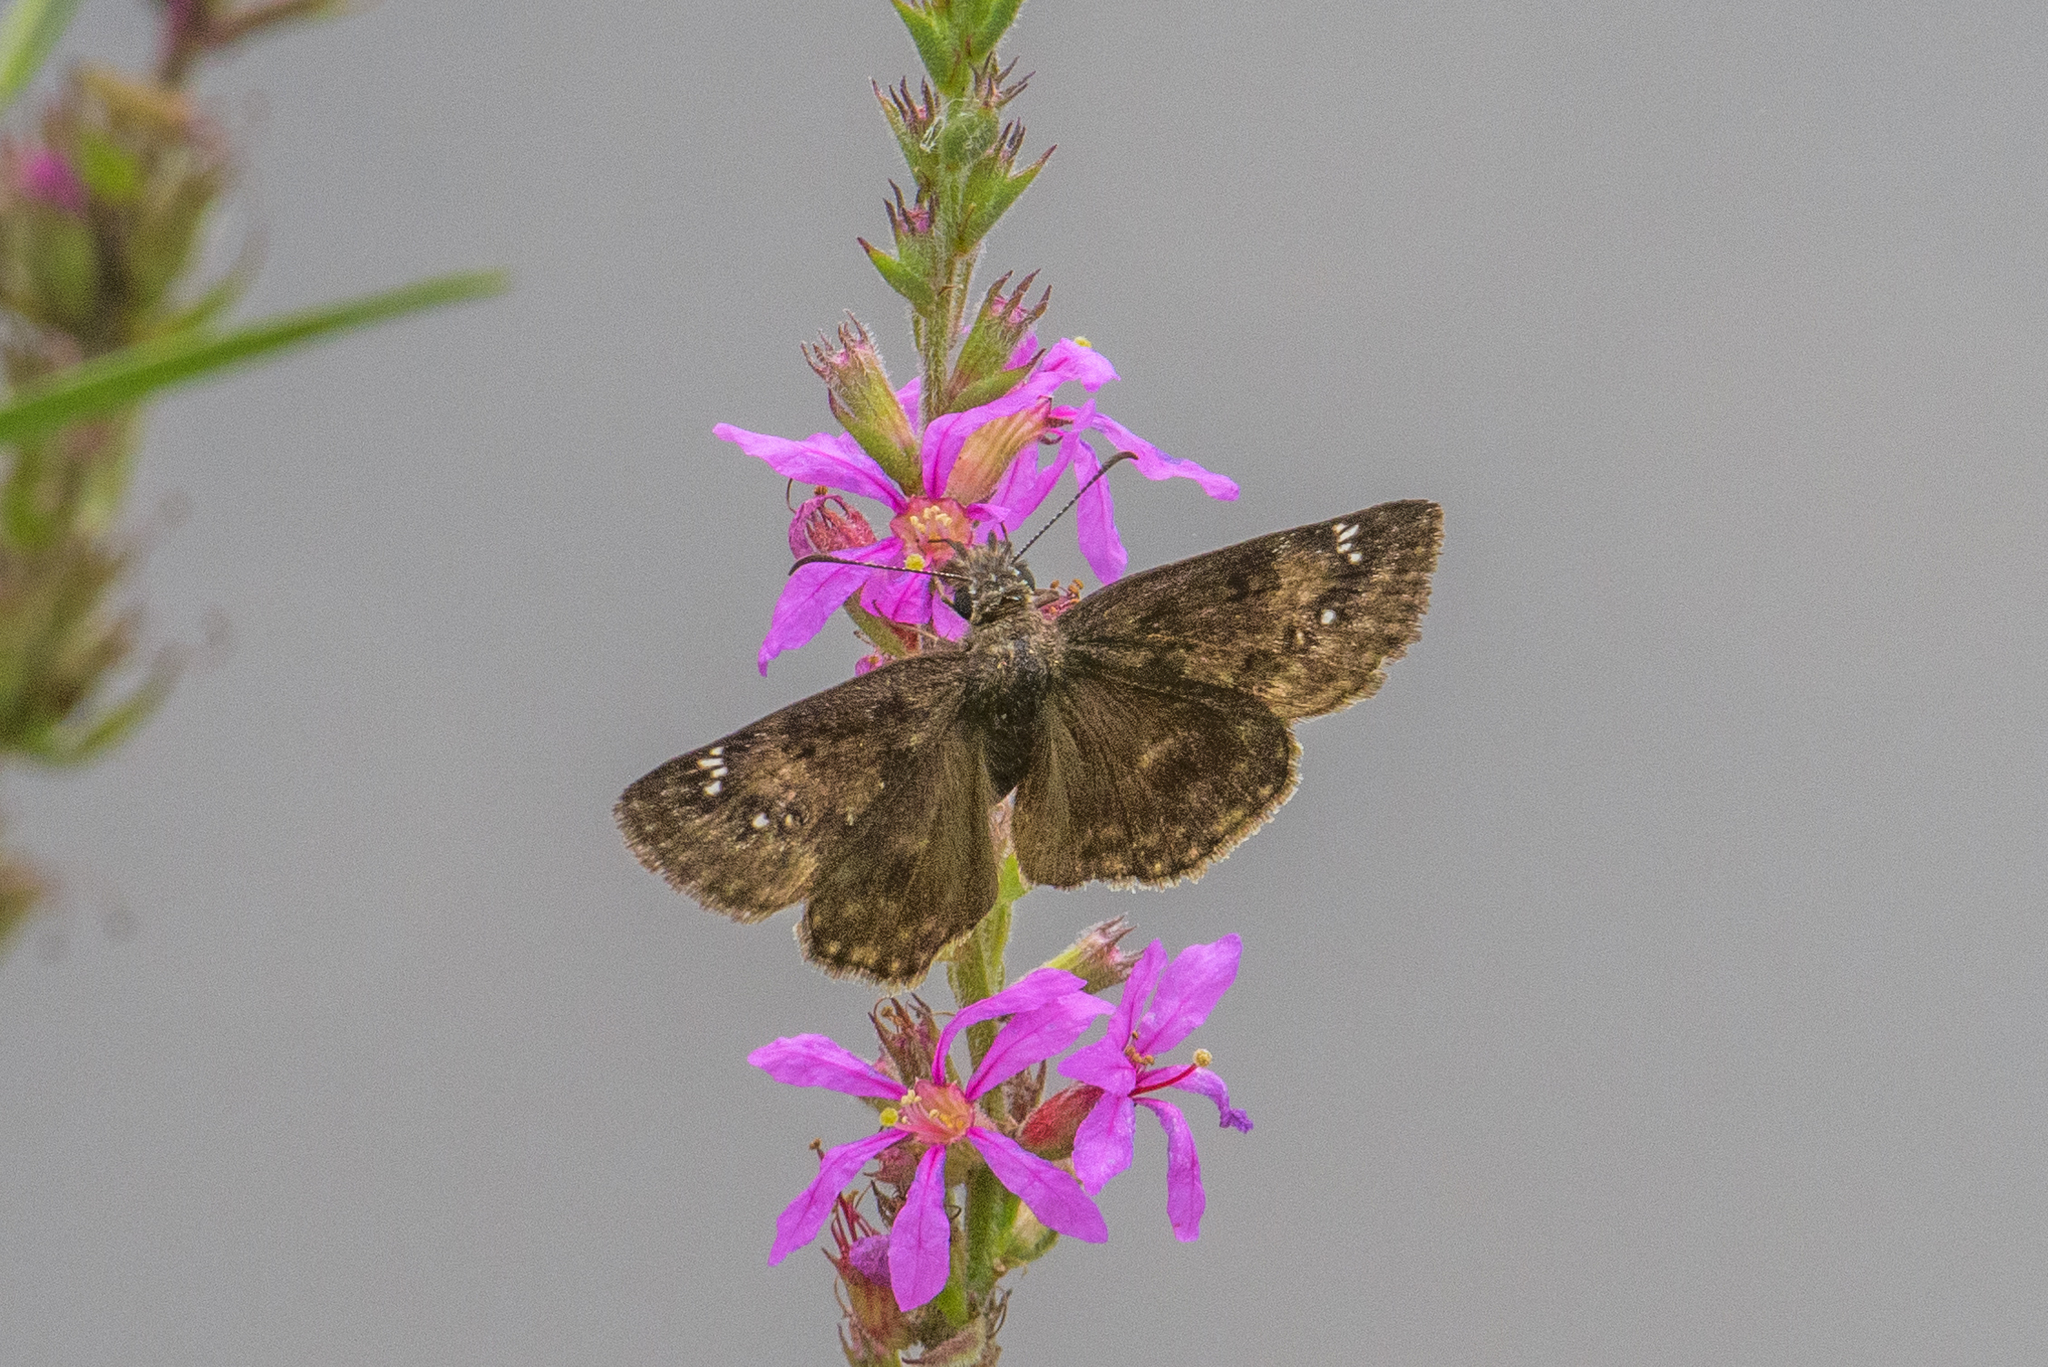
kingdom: Animalia
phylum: Arthropoda
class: Insecta
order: Lepidoptera
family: Hesperiidae
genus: Erynnis
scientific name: Erynnis baptisiae
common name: Wild indigo duskywing
